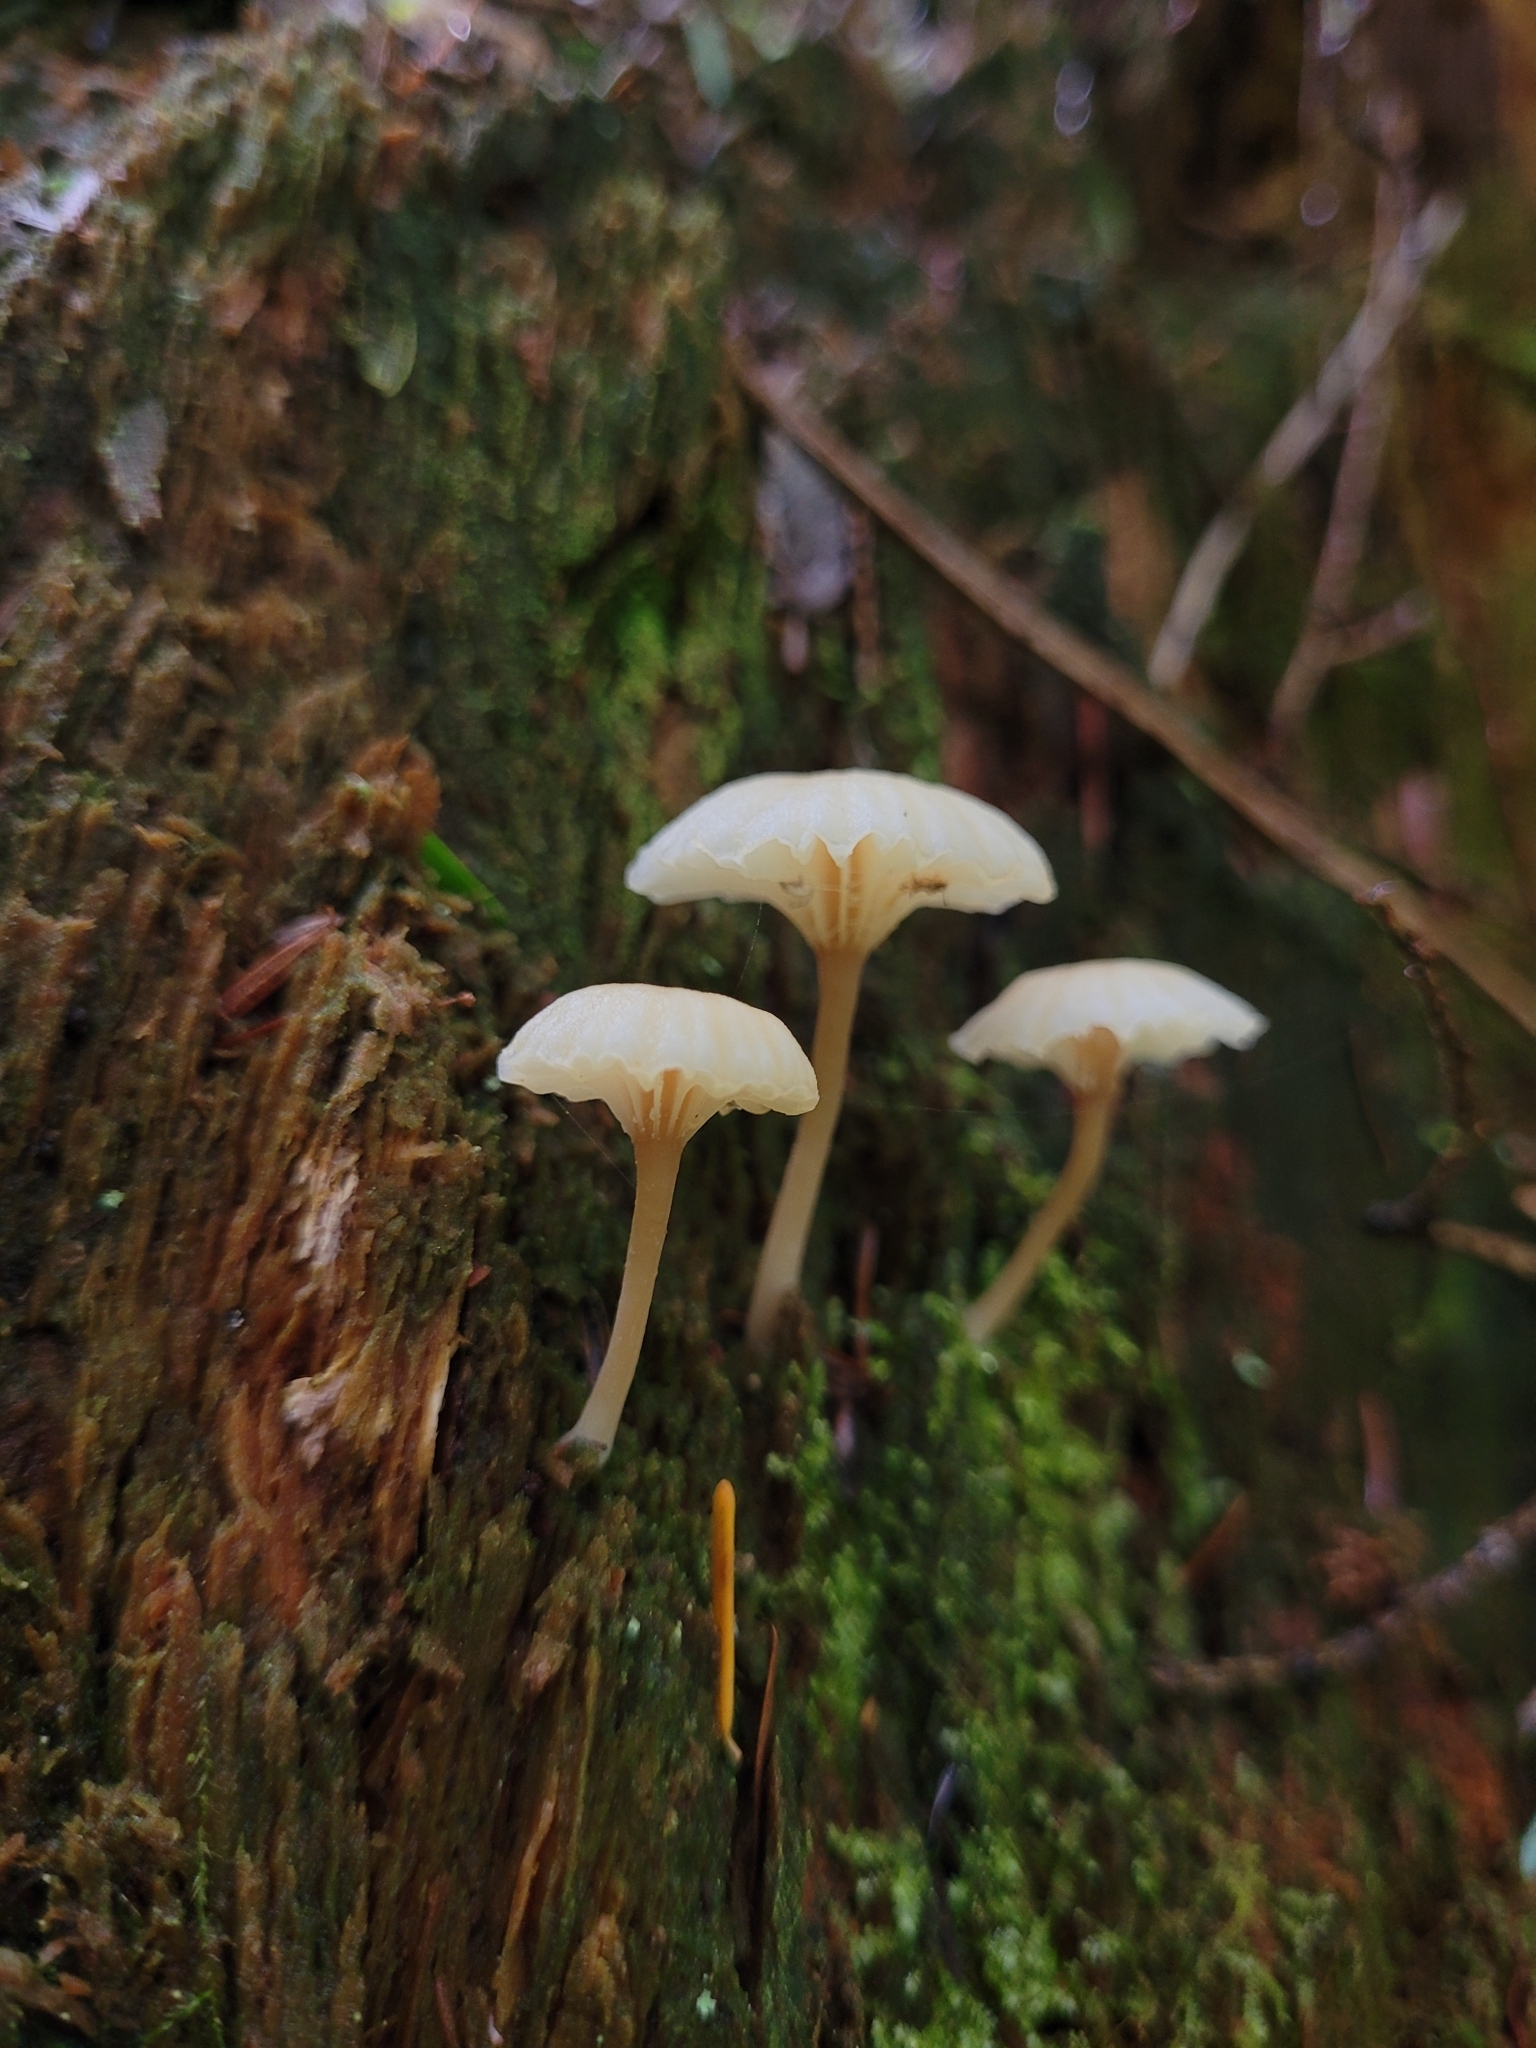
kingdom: Fungi
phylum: Basidiomycota
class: Agaricomycetes
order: Agaricales
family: Hygrophoraceae
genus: Lichenomphalia
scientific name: Lichenomphalia
